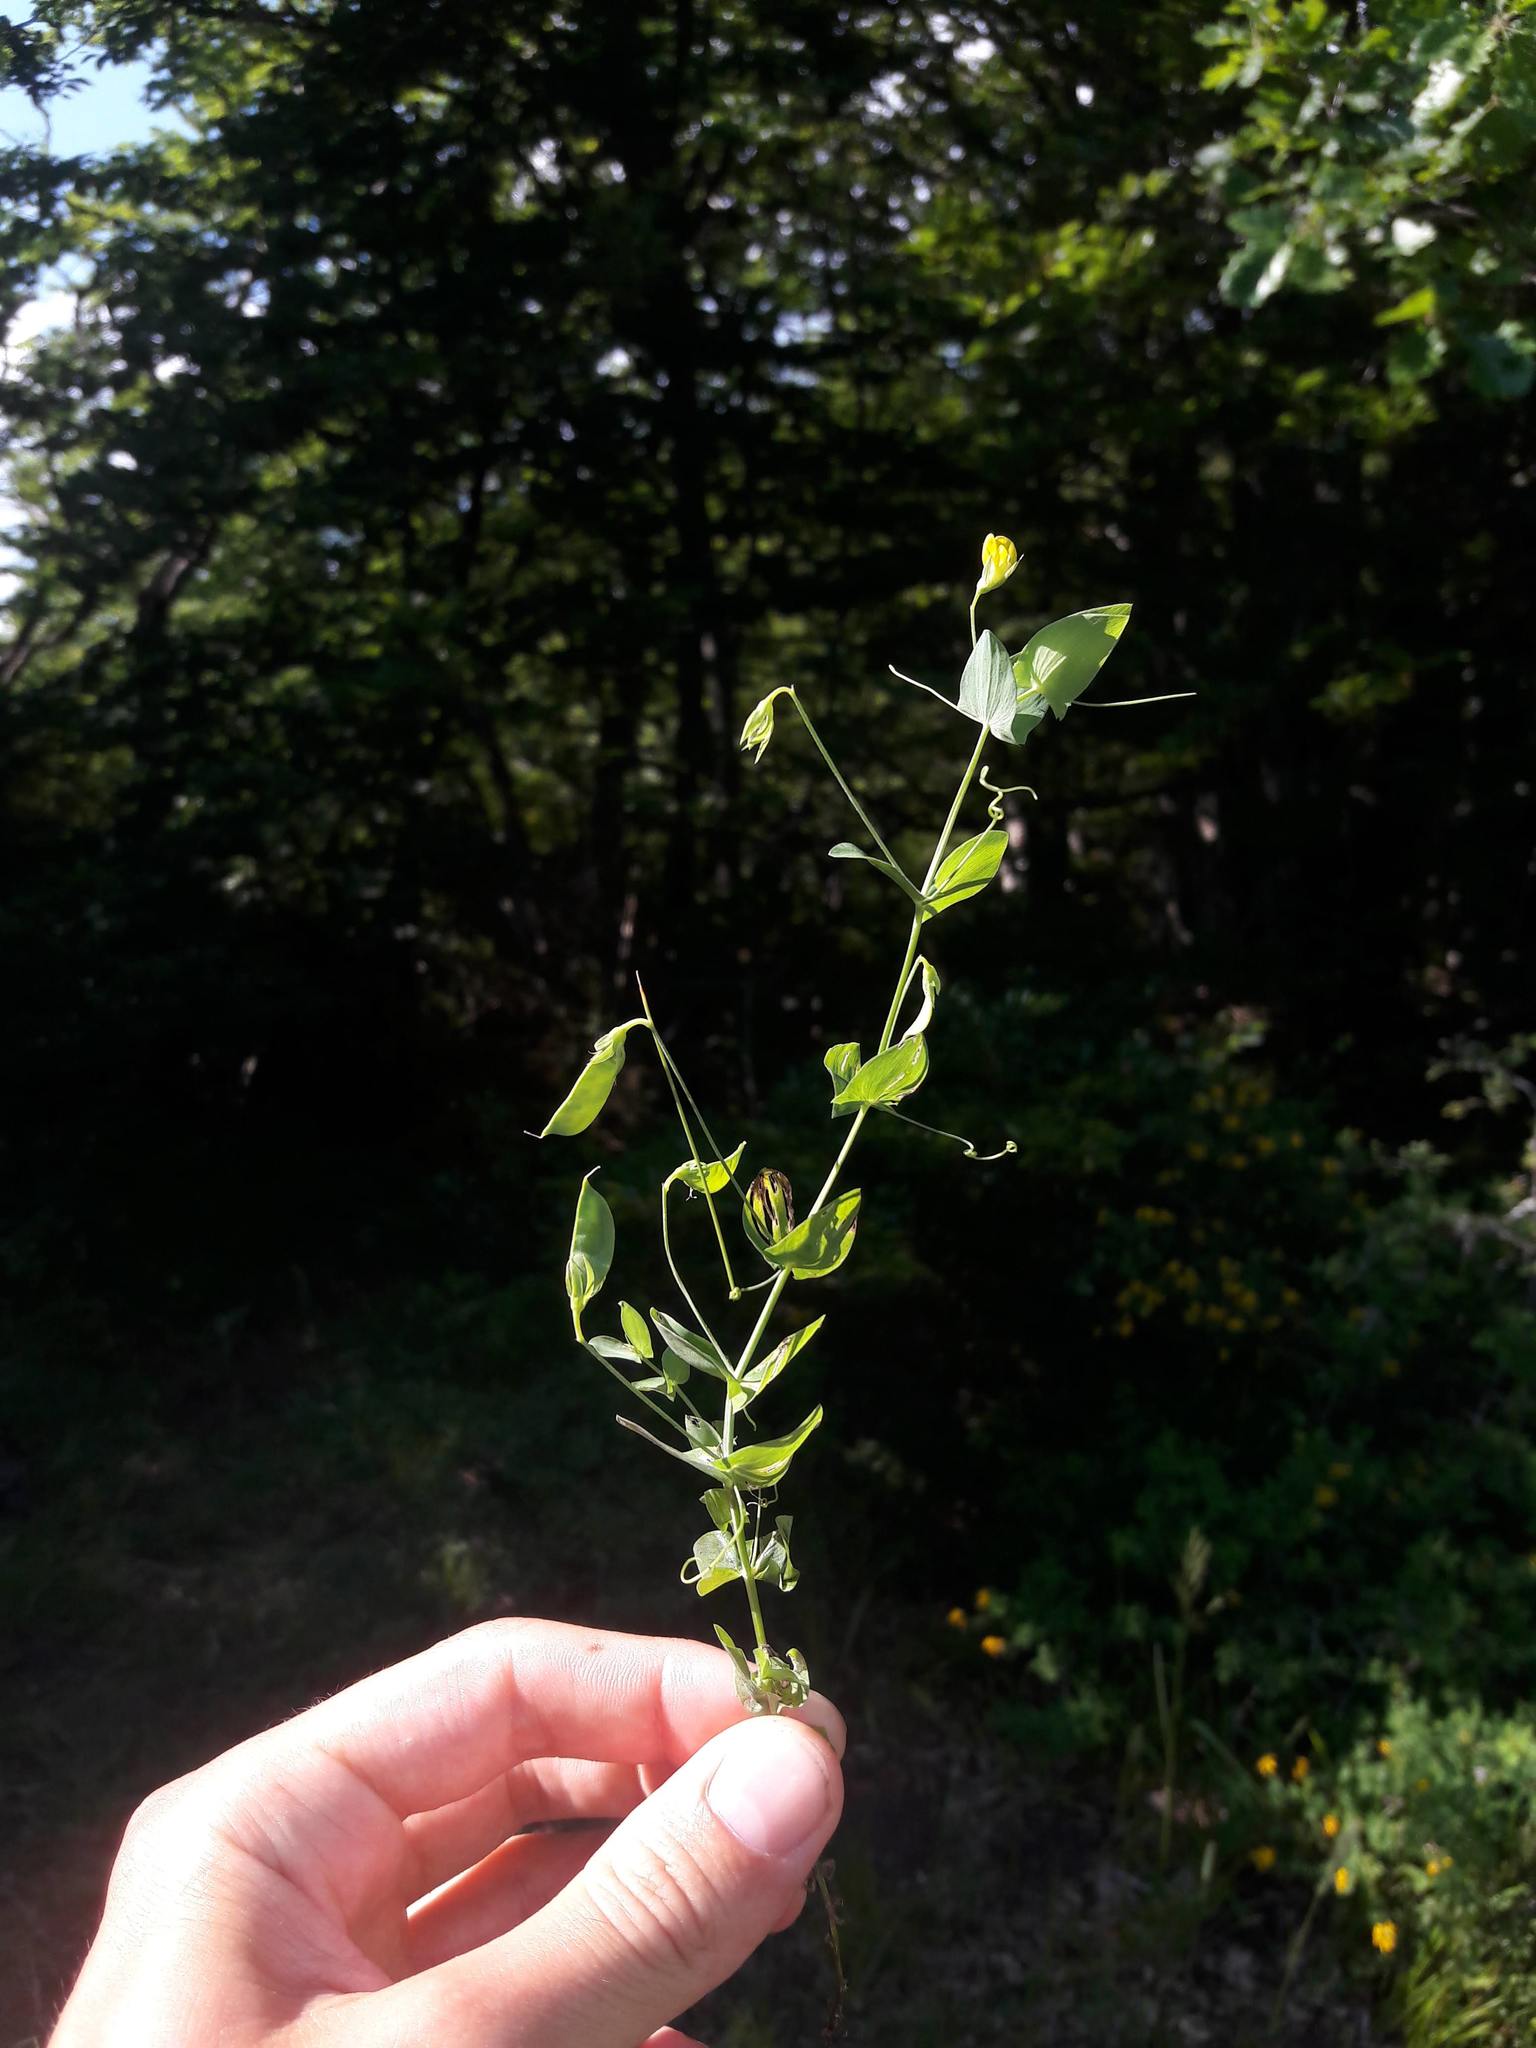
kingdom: Plantae
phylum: Tracheophyta
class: Magnoliopsida
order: Fabales
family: Fabaceae
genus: Lathyrus
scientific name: Lathyrus aphaca
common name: Yellow vetchling
